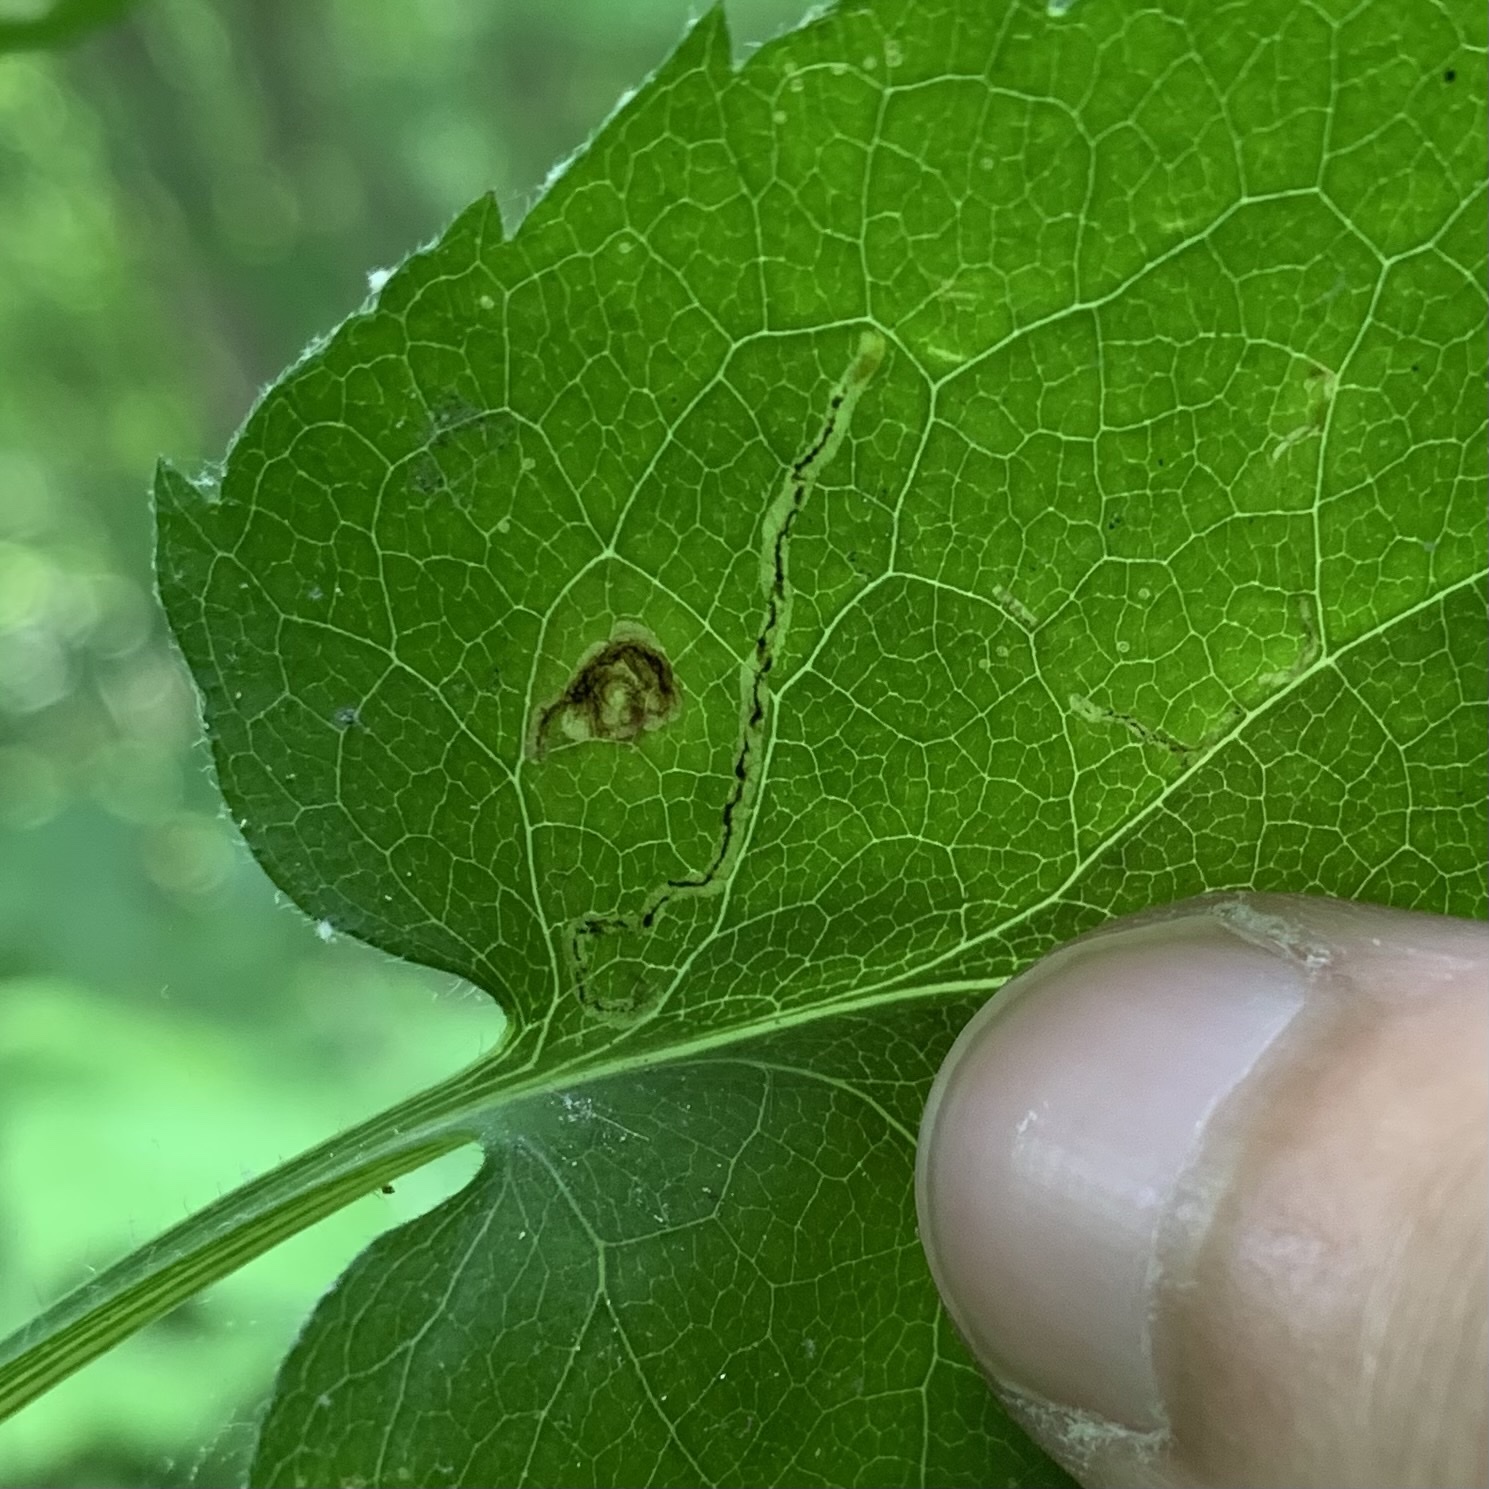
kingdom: Animalia
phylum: Arthropoda
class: Insecta
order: Diptera
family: Agromyzidae
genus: Liriomyza
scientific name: Liriomyza eupatorii
